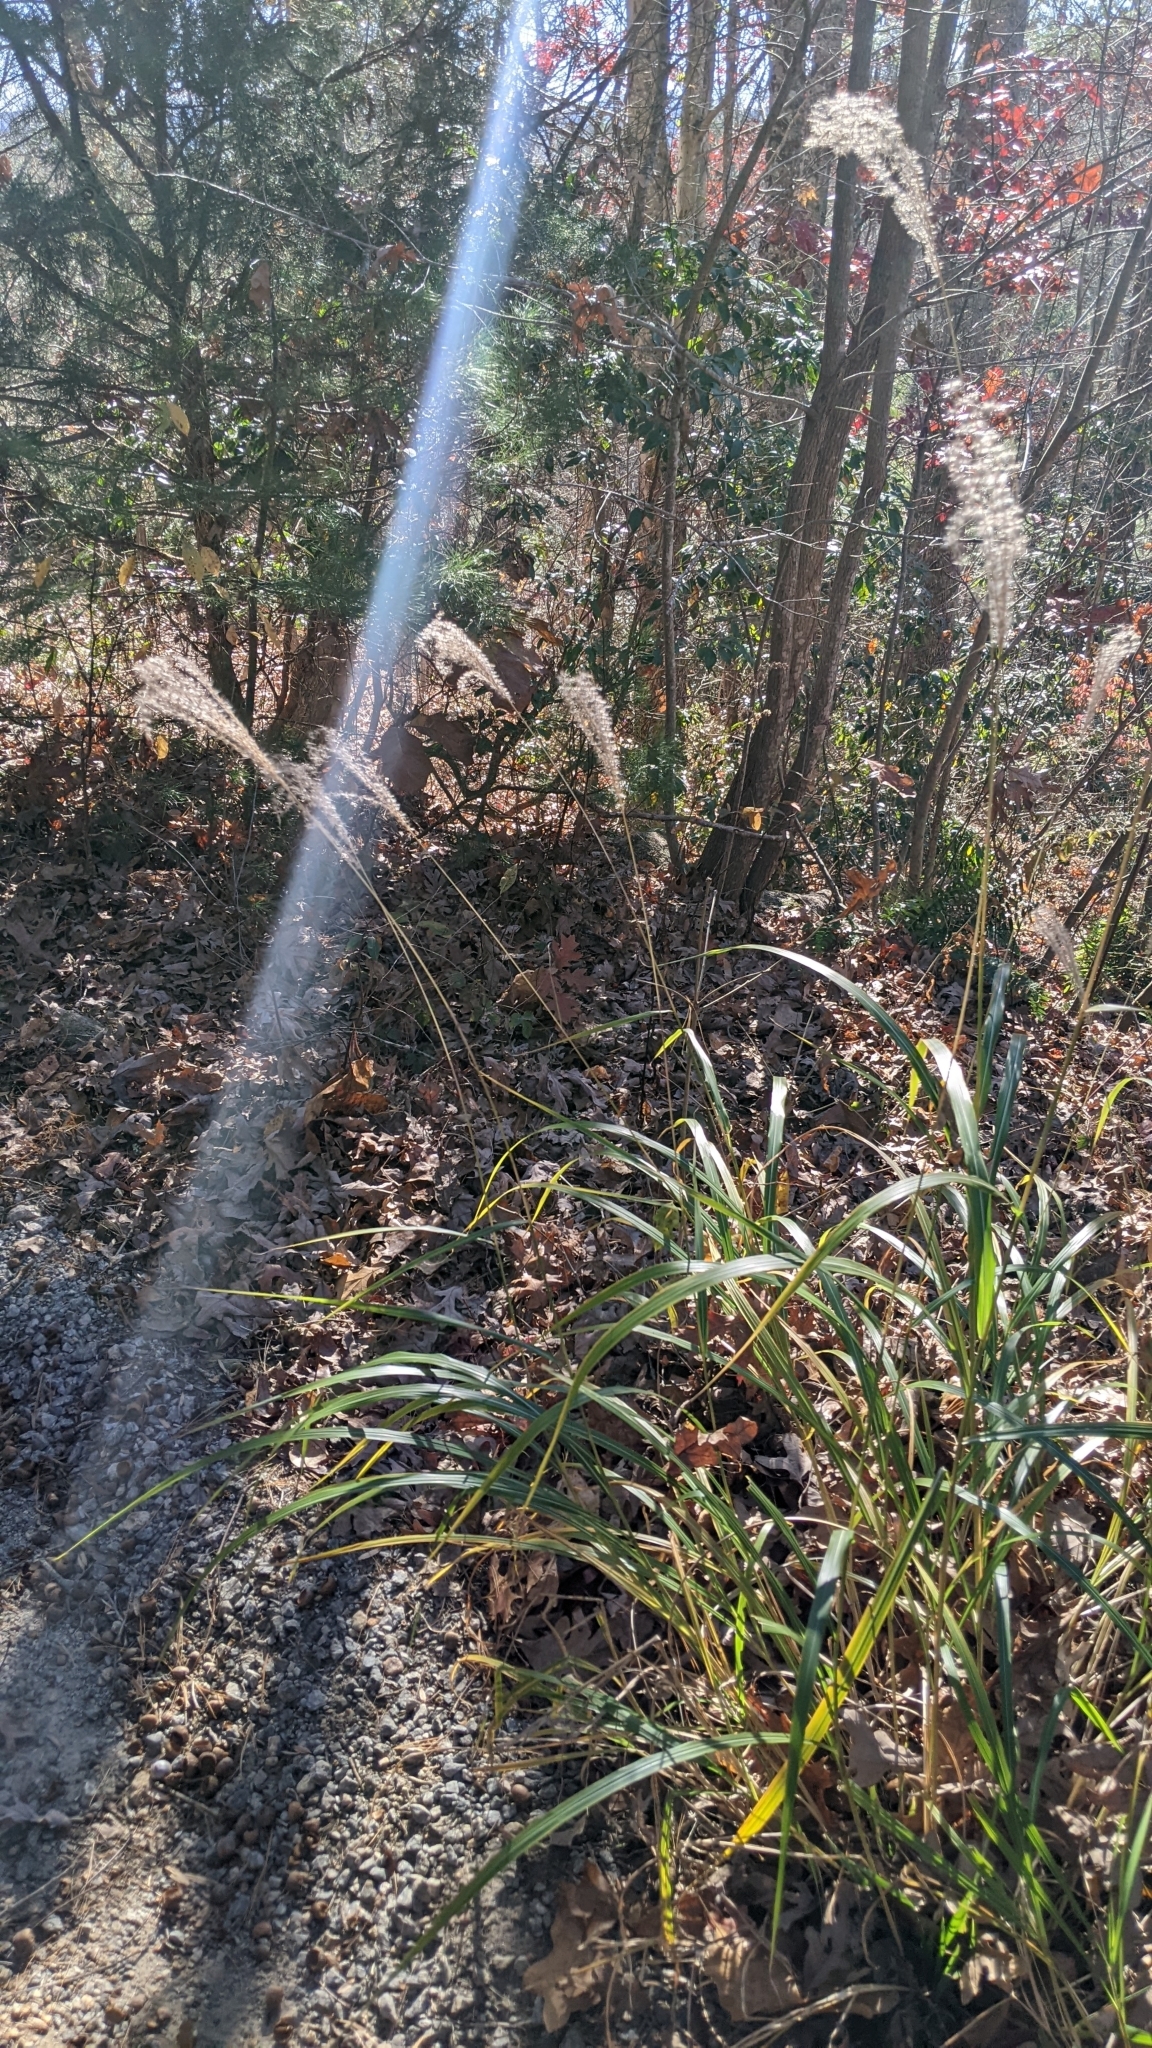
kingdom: Plantae
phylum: Tracheophyta
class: Liliopsida
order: Poales
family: Poaceae
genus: Miscanthus
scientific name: Miscanthus sinensis
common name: Chinese silvergrass
